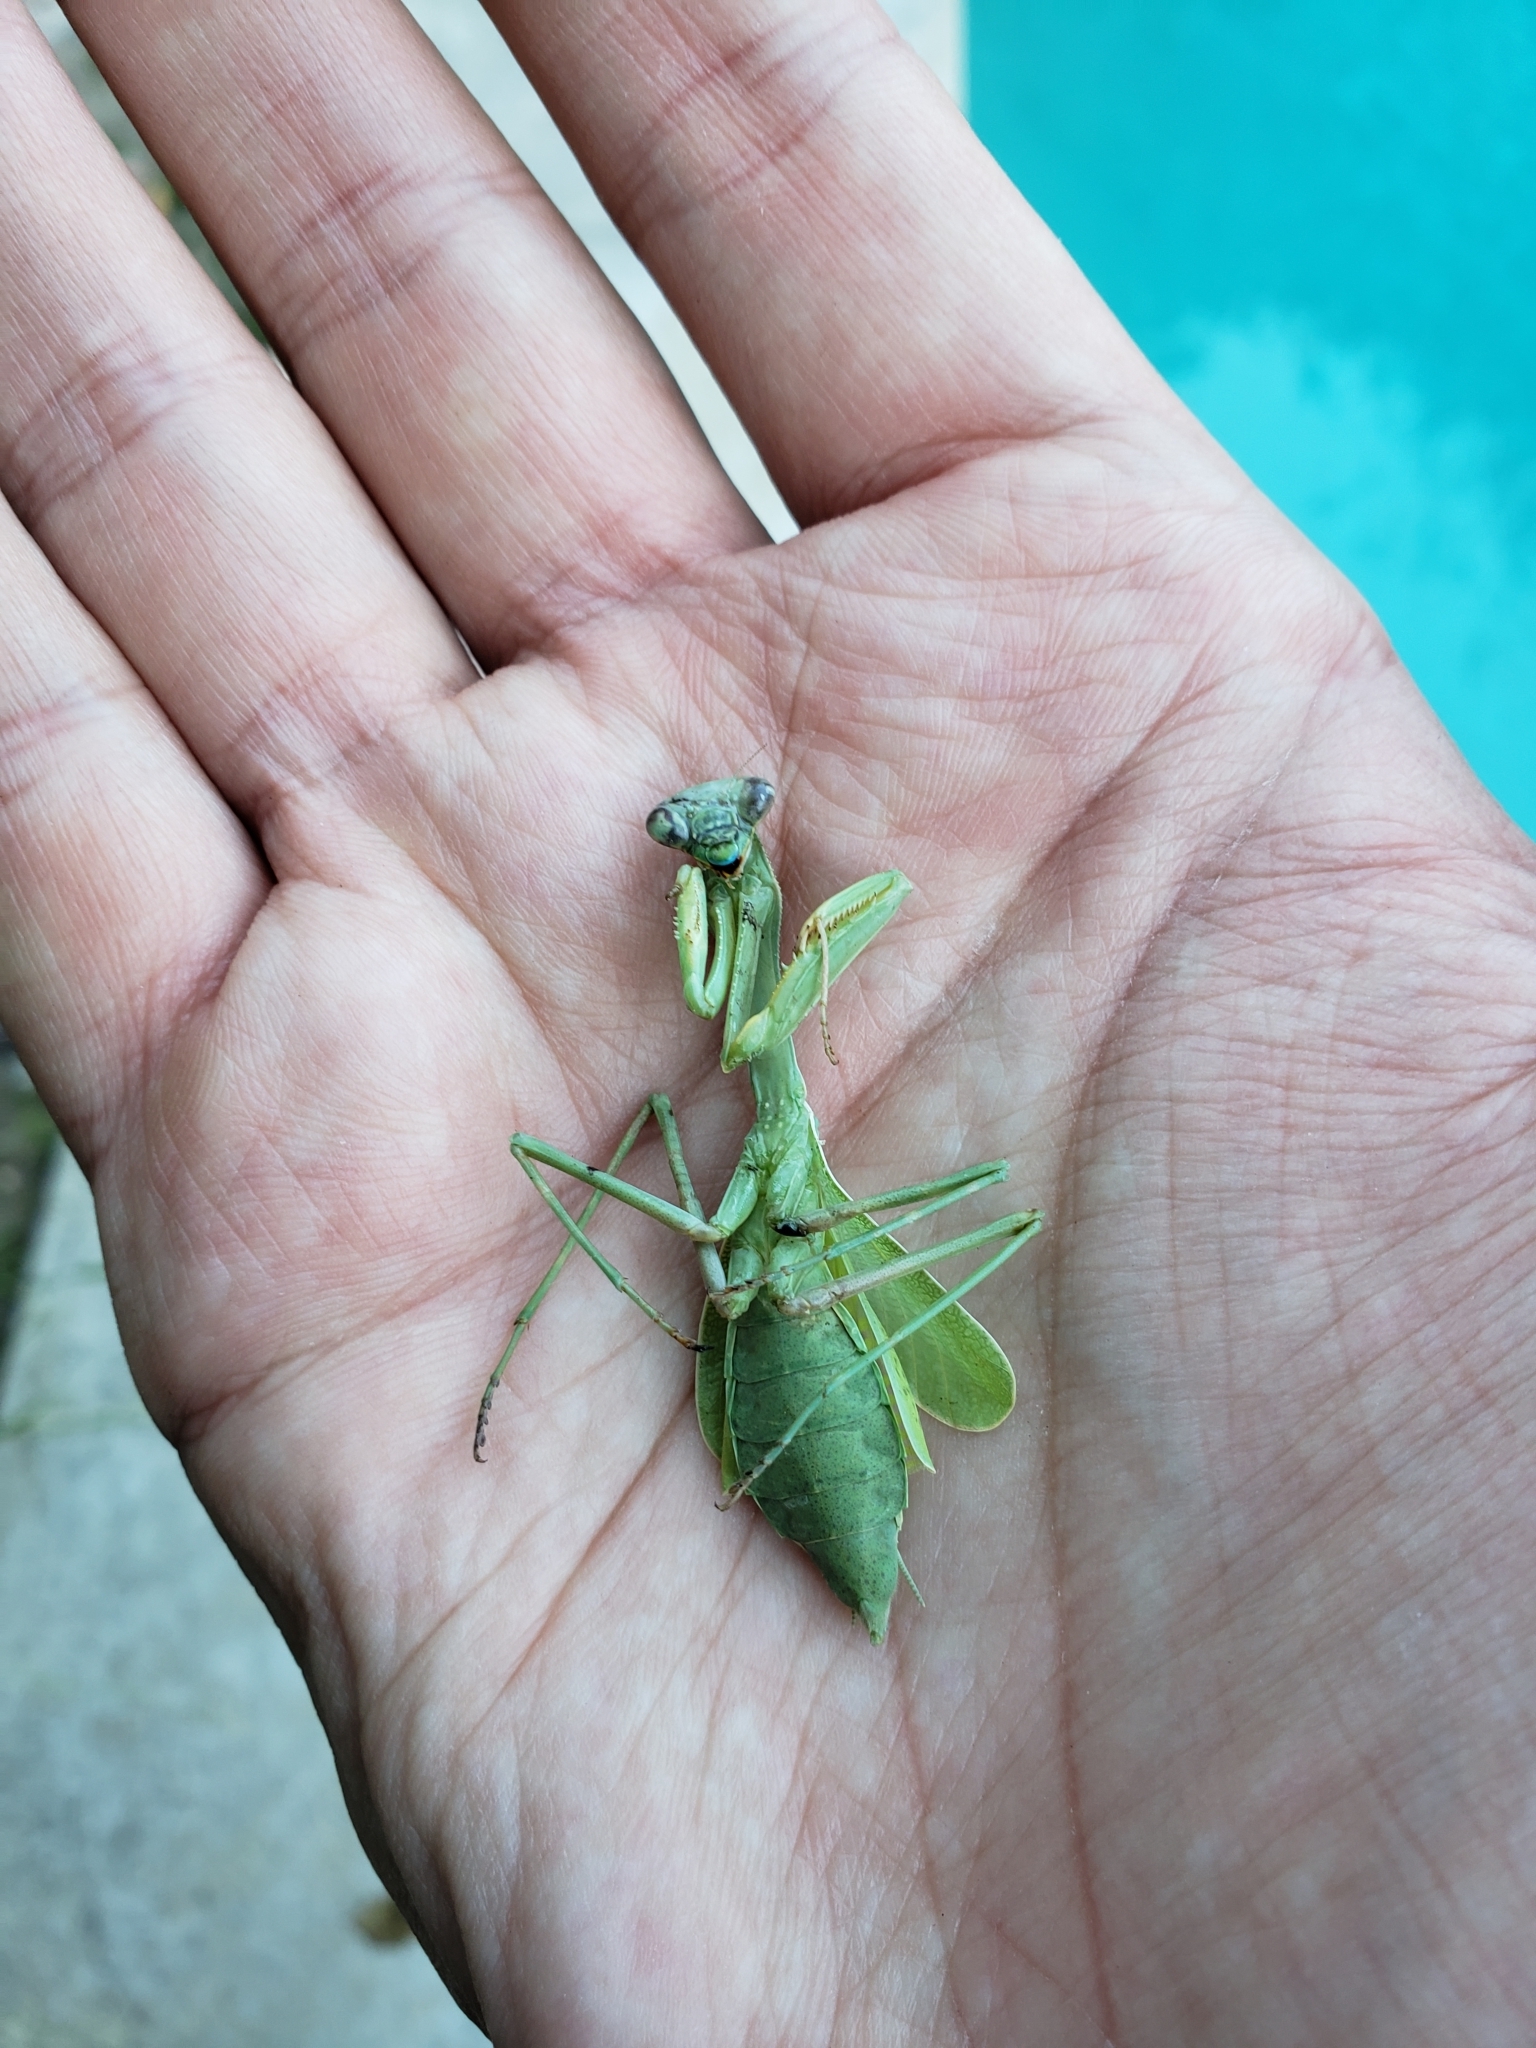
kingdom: Animalia
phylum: Arthropoda
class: Insecta
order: Mantodea
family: Mantidae
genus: Stagmomantis
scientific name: Stagmomantis limbata
